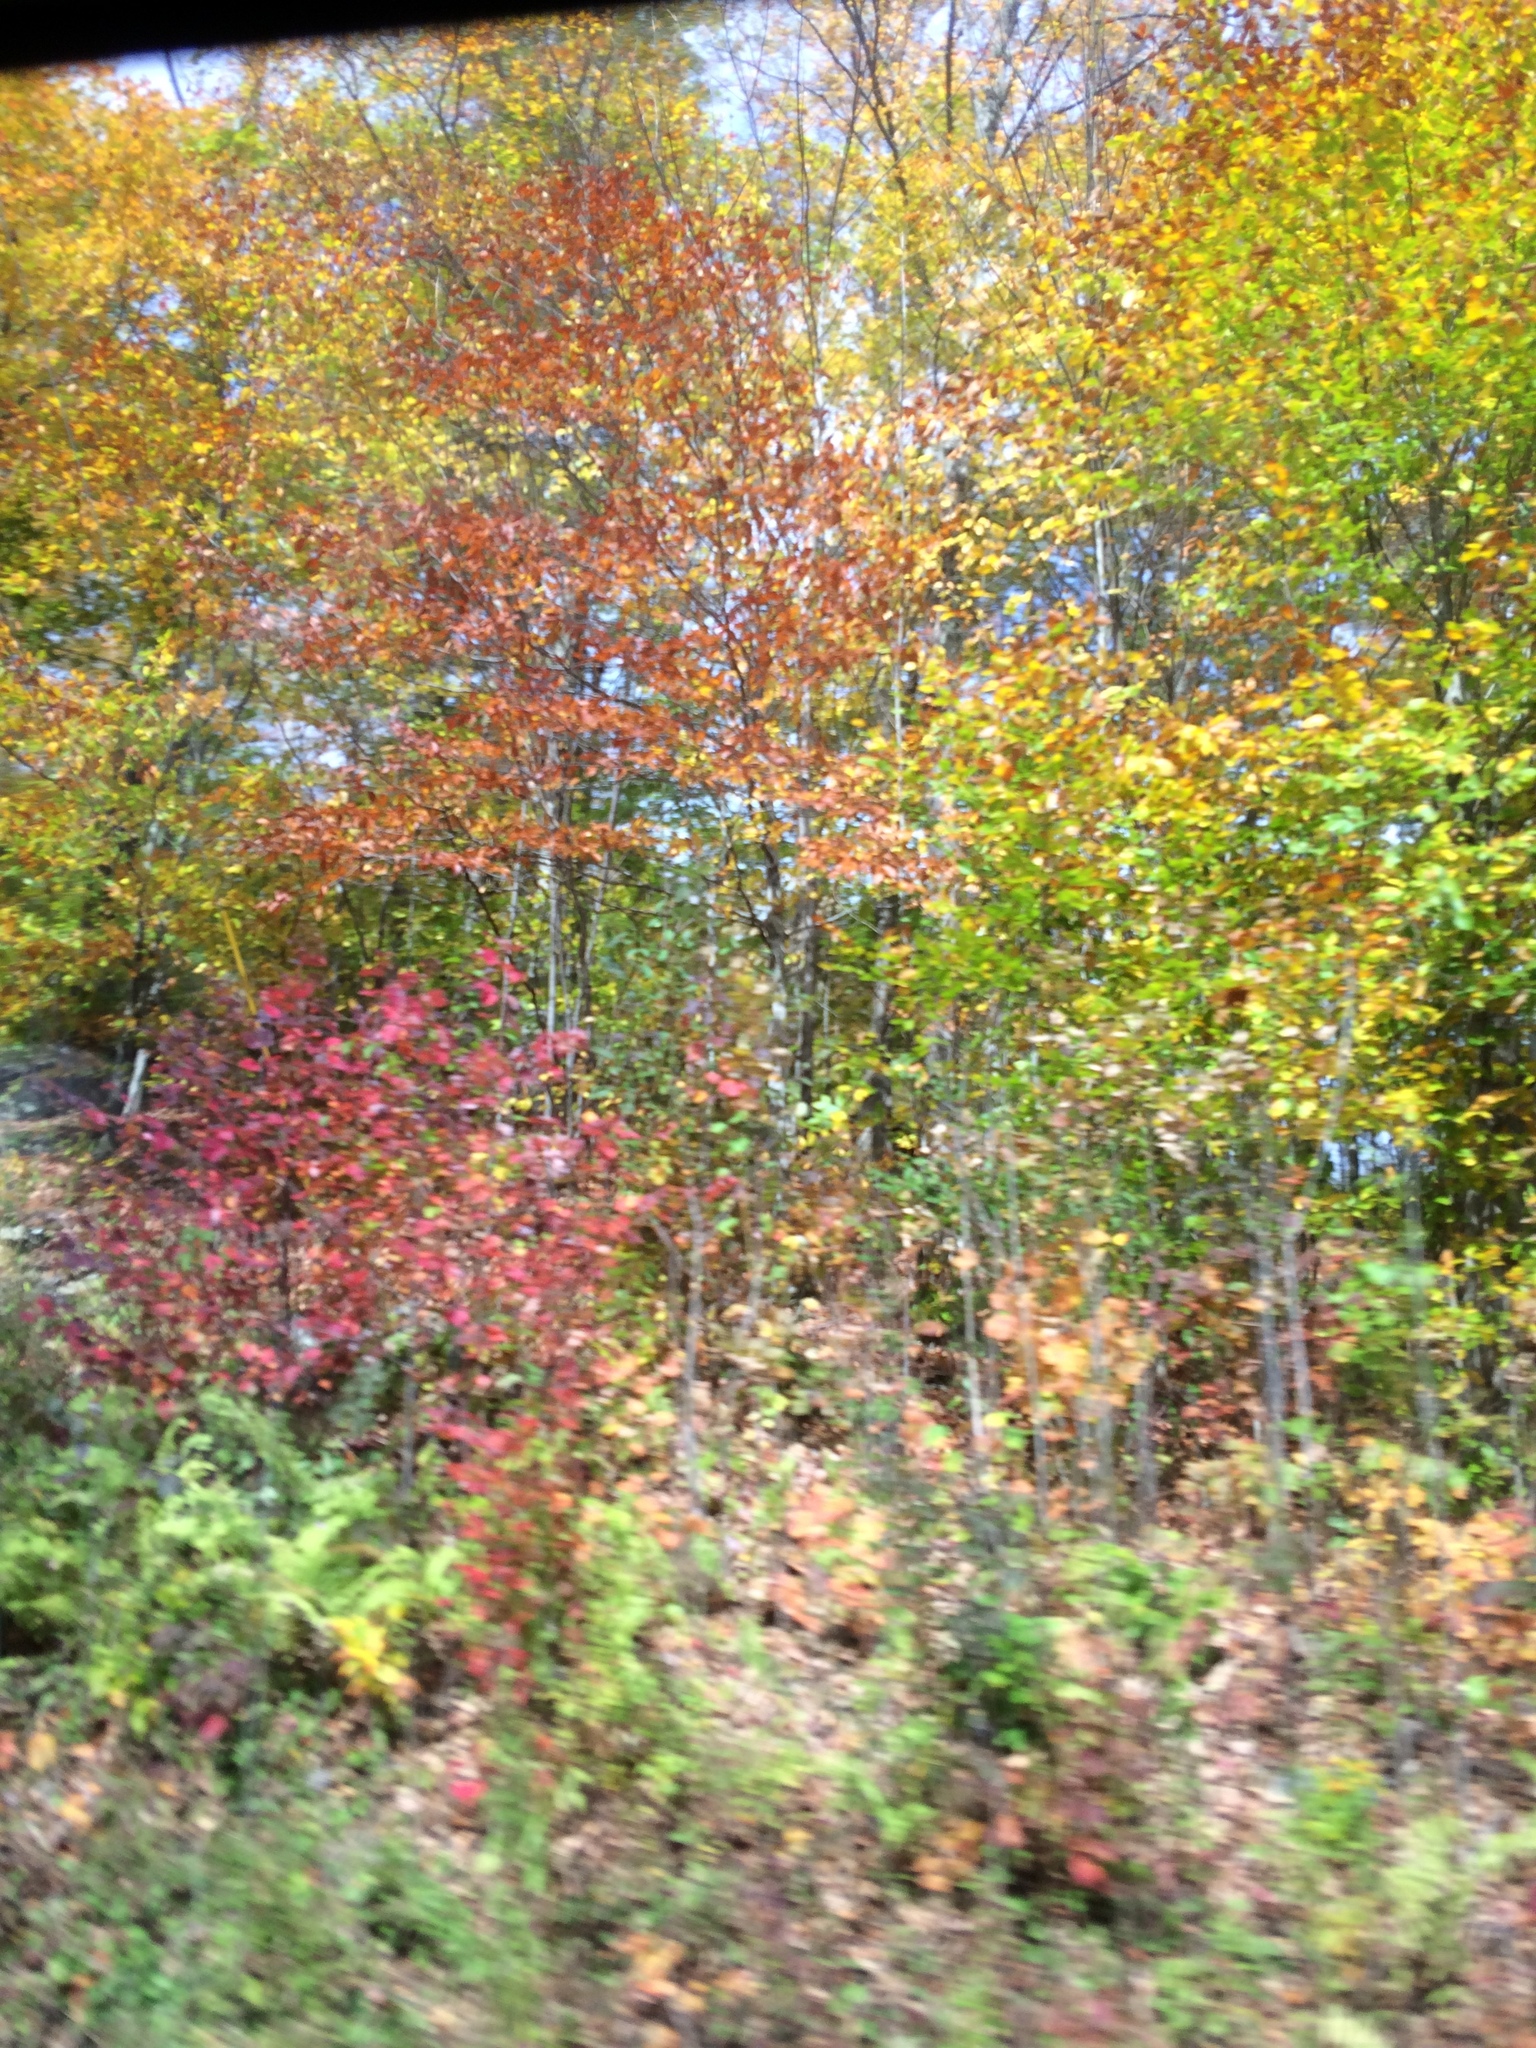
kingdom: Plantae
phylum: Tracheophyta
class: Magnoliopsida
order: Fagales
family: Fagaceae
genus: Fagus
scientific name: Fagus grandifolia
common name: American beech
